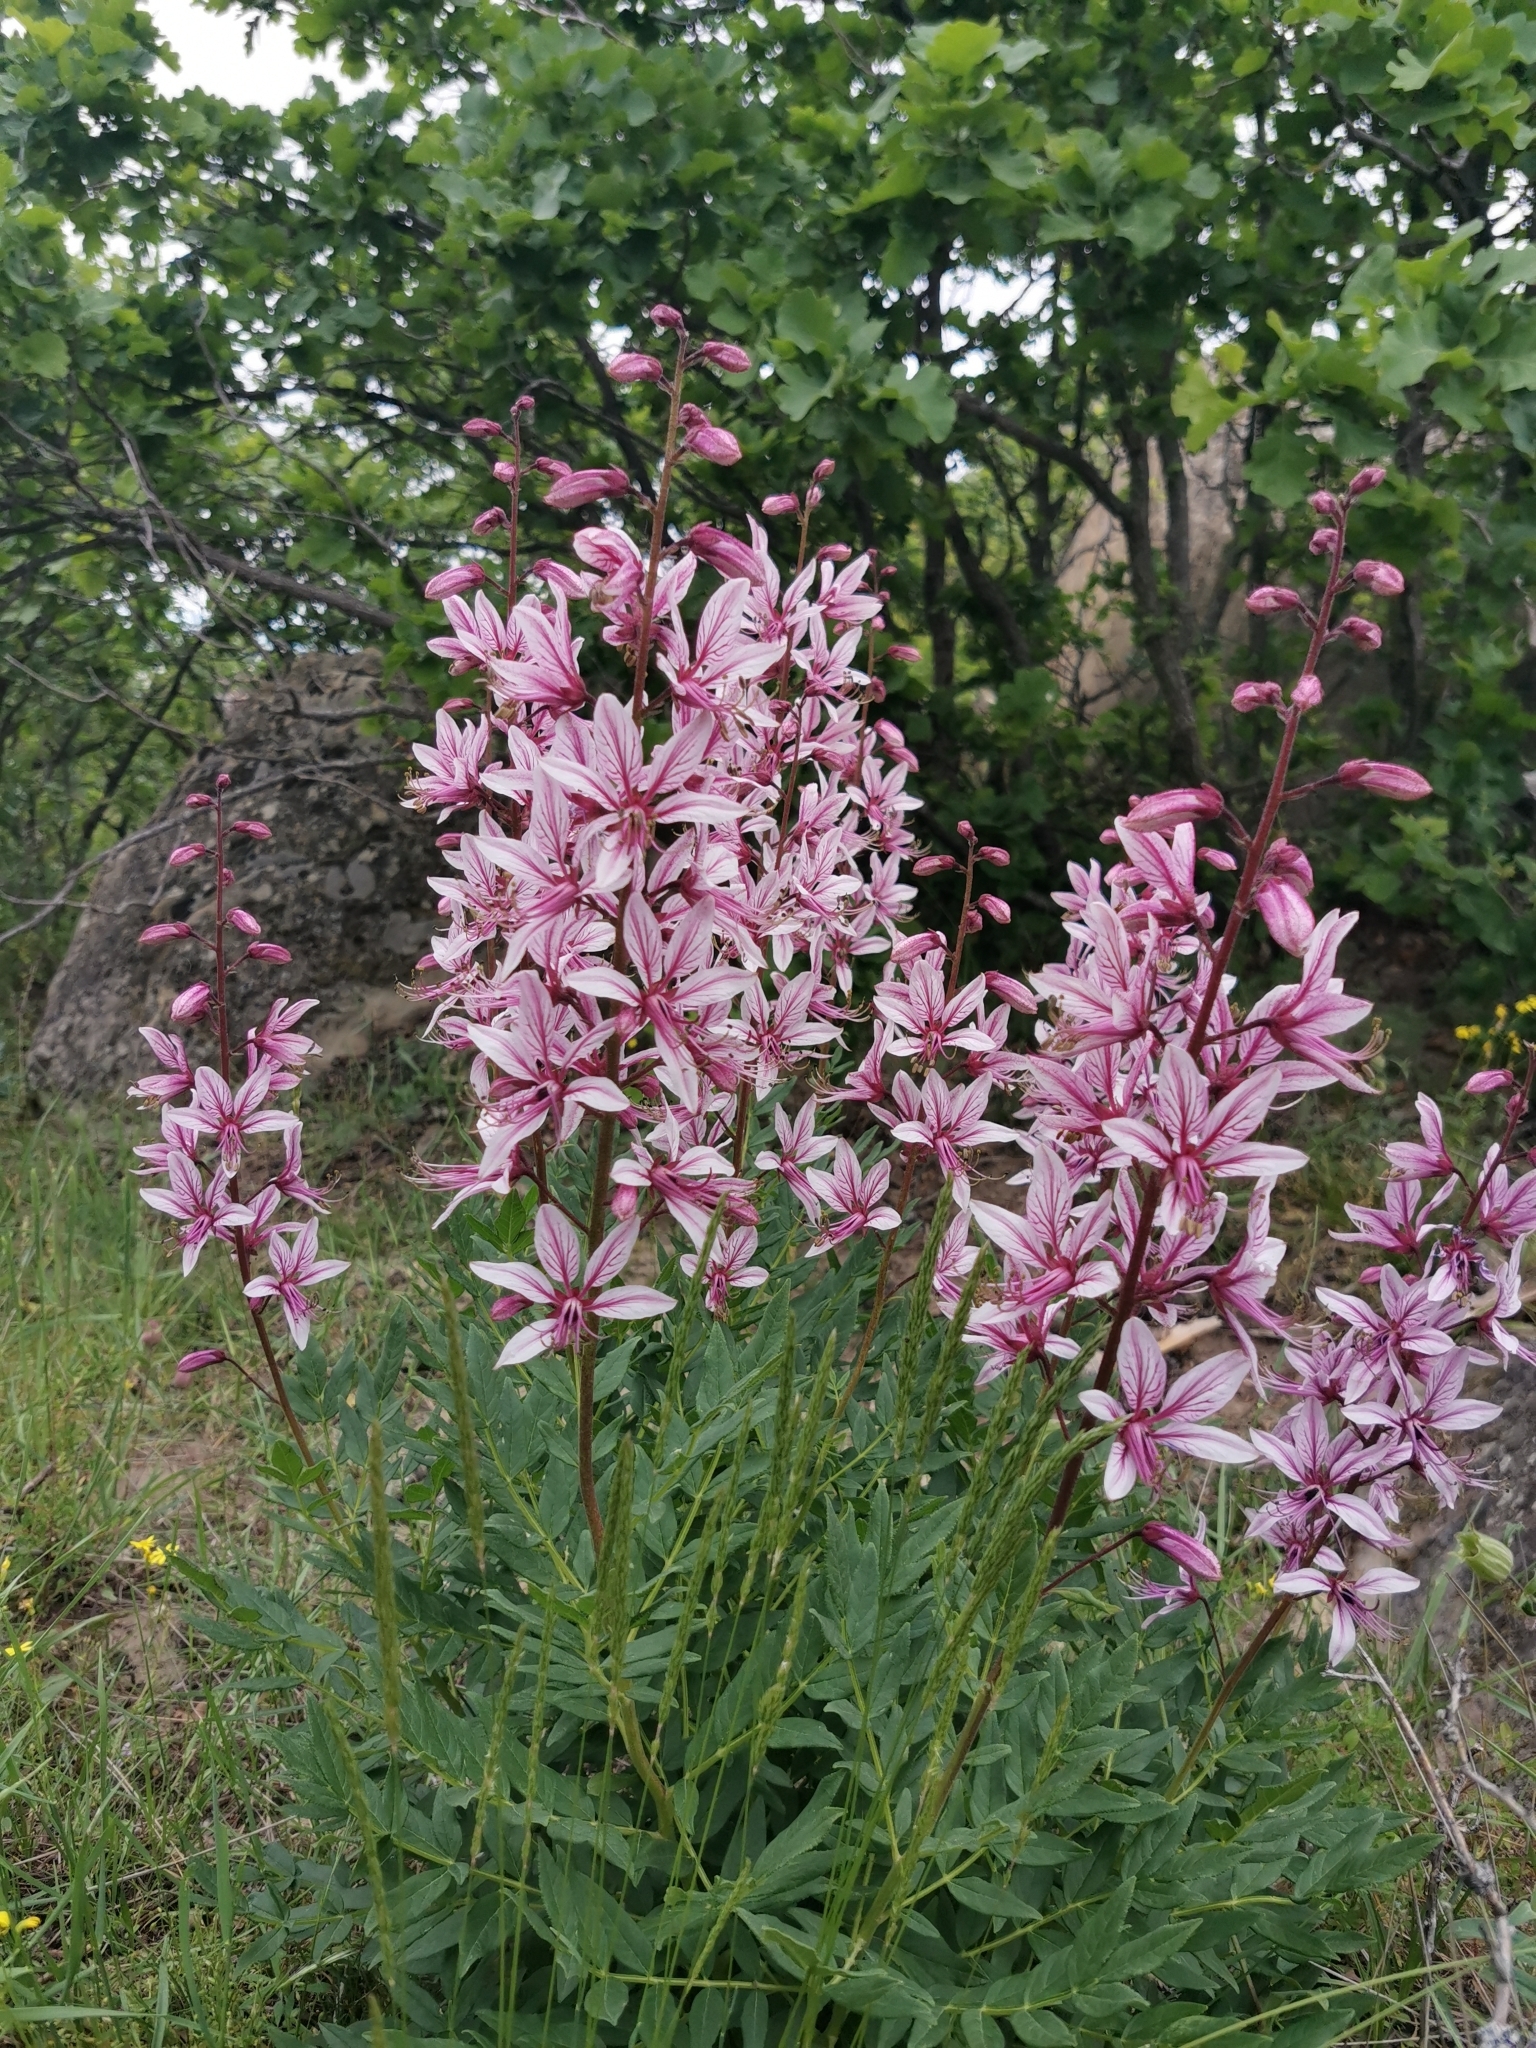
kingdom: Plantae
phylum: Tracheophyta
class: Magnoliopsida
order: Sapindales
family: Rutaceae
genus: Dictamnus
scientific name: Dictamnus albus
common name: Gasplant
